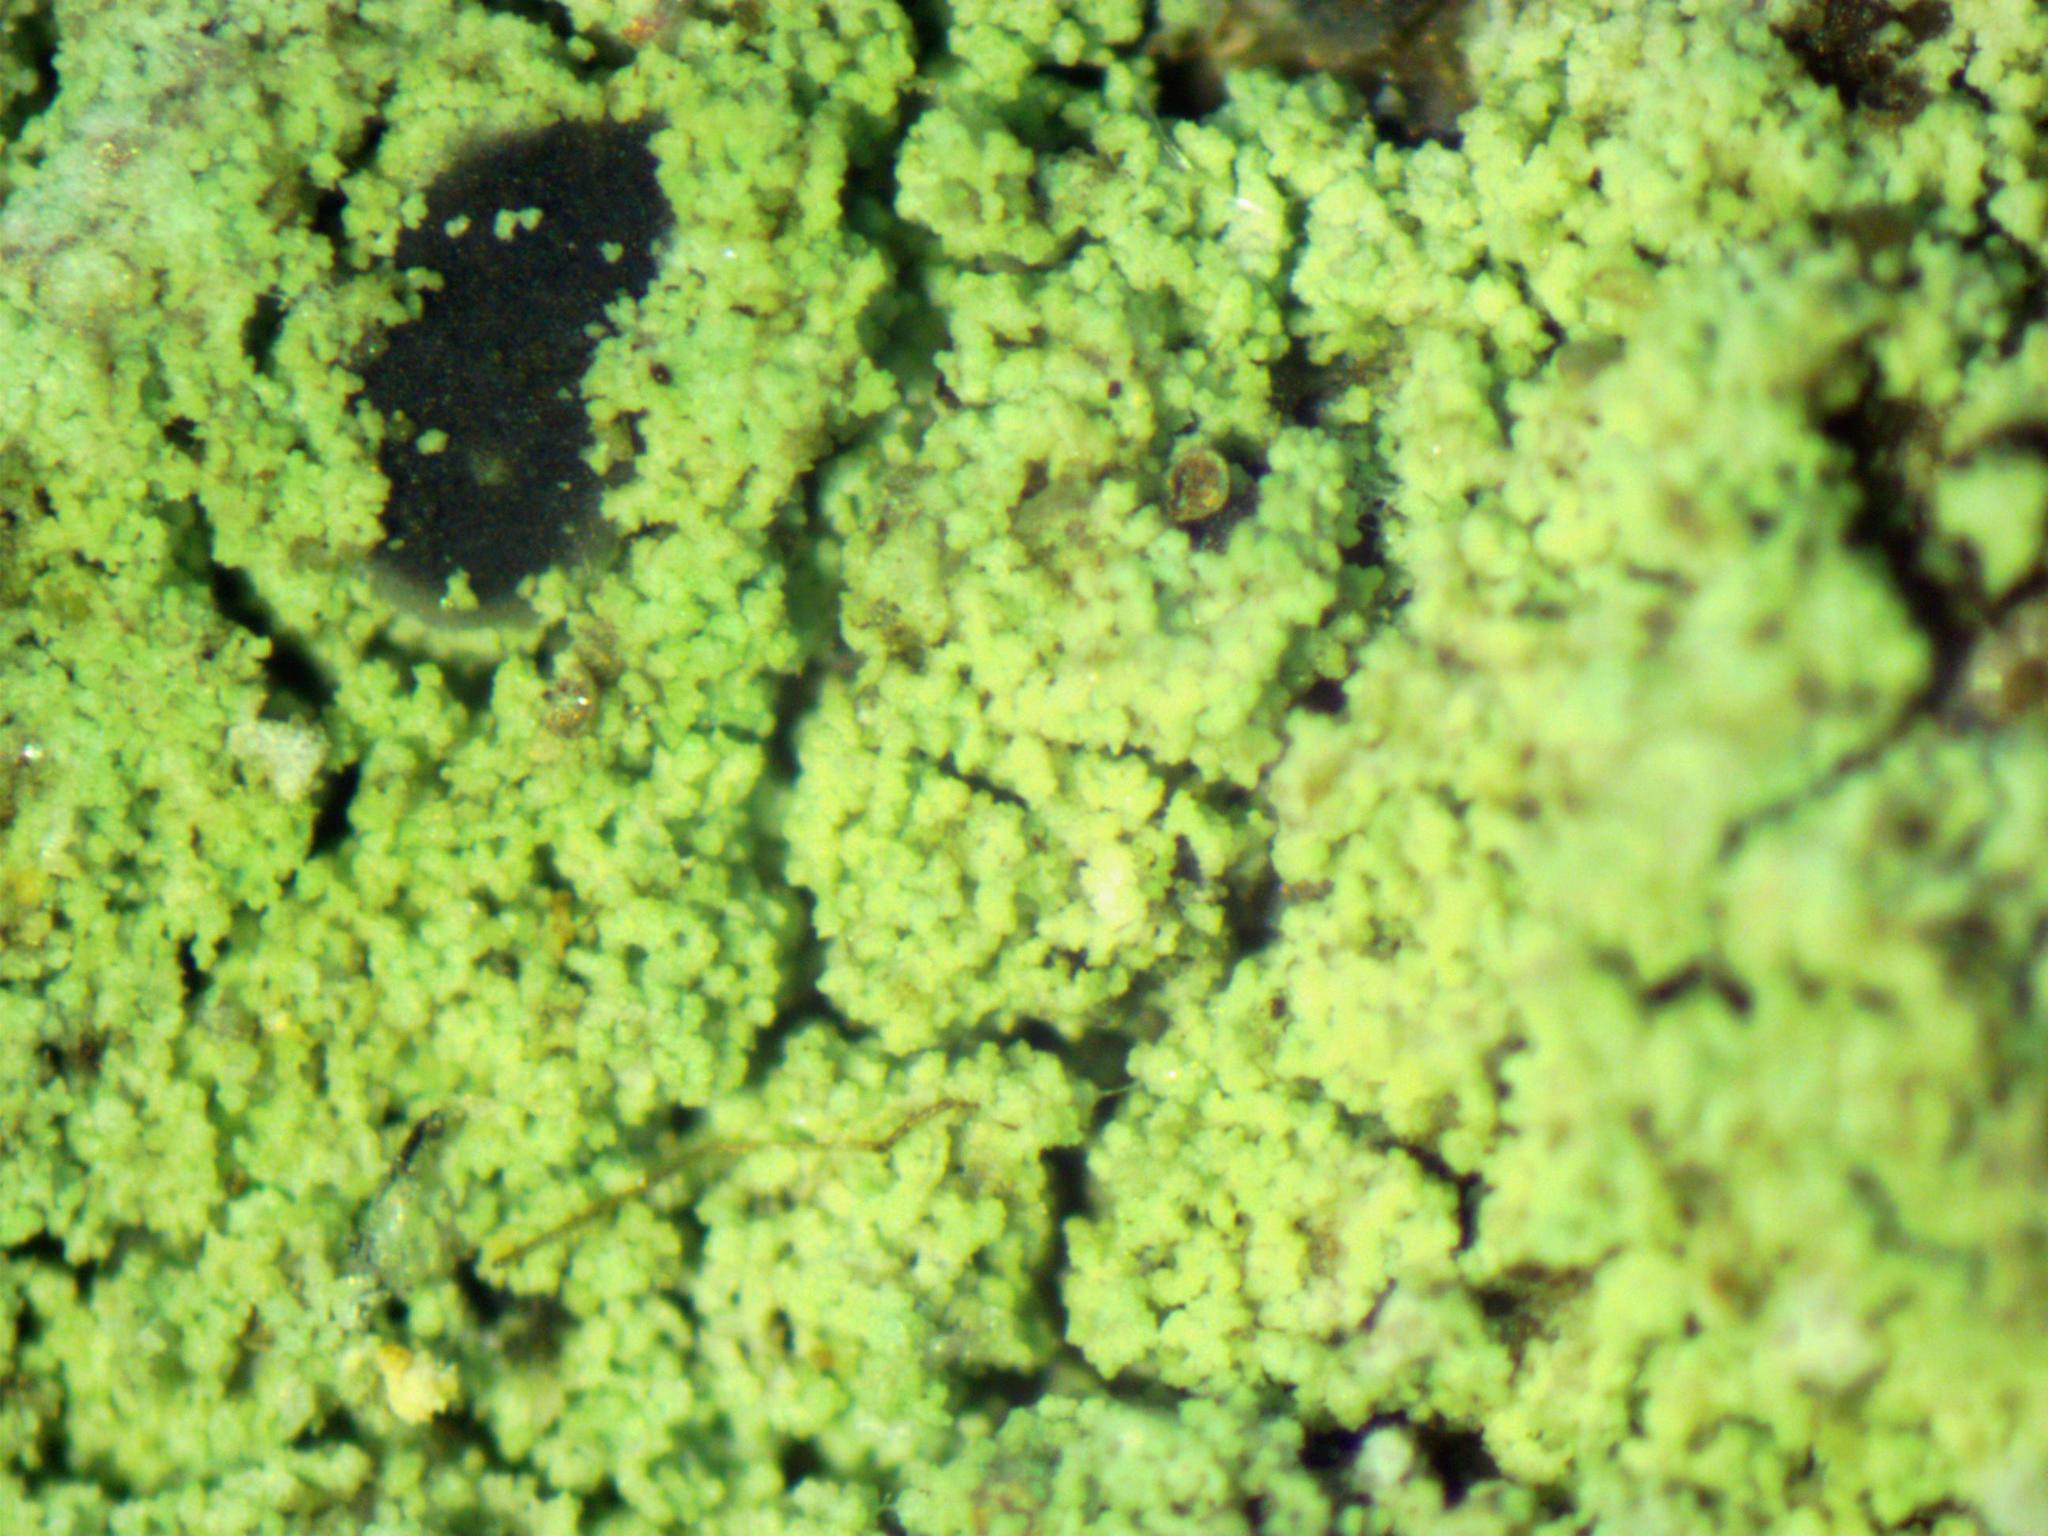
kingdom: Fungi
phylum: Ascomycota
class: Lecanoromycetes
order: Lecanorales
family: Ramalinaceae
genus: Biatora
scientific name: Biatora pontica
